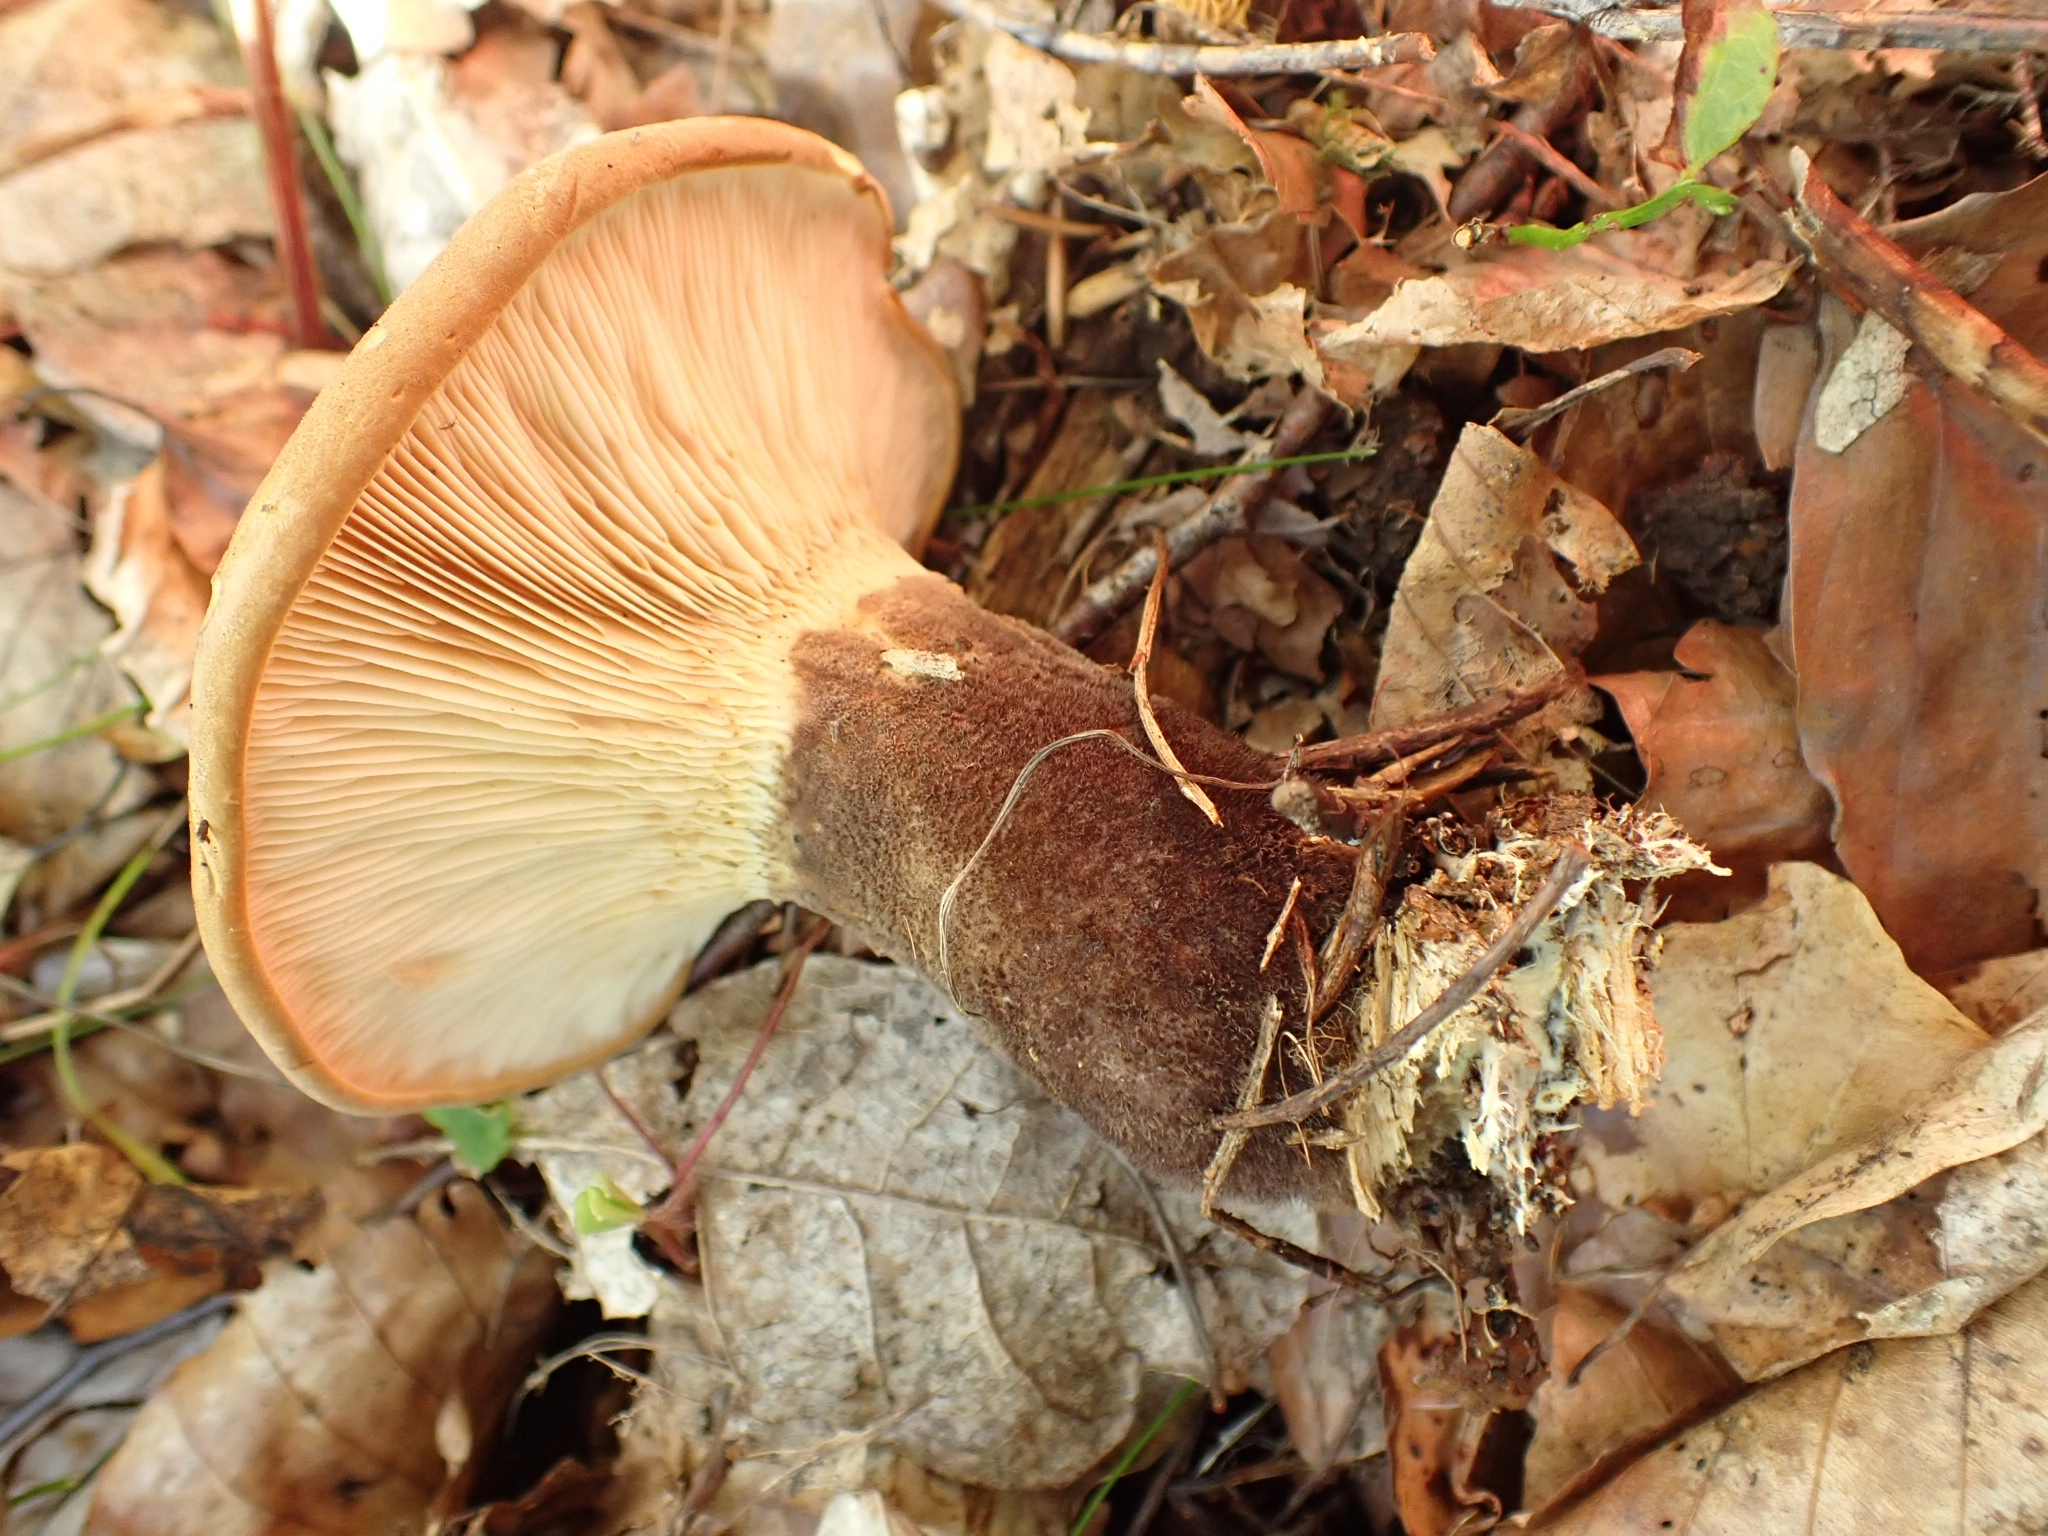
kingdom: Fungi
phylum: Basidiomycota
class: Agaricomycetes
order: Boletales
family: Tapinellaceae
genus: Tapinella
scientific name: Tapinella atrotomentosa
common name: Velvet rollrim
